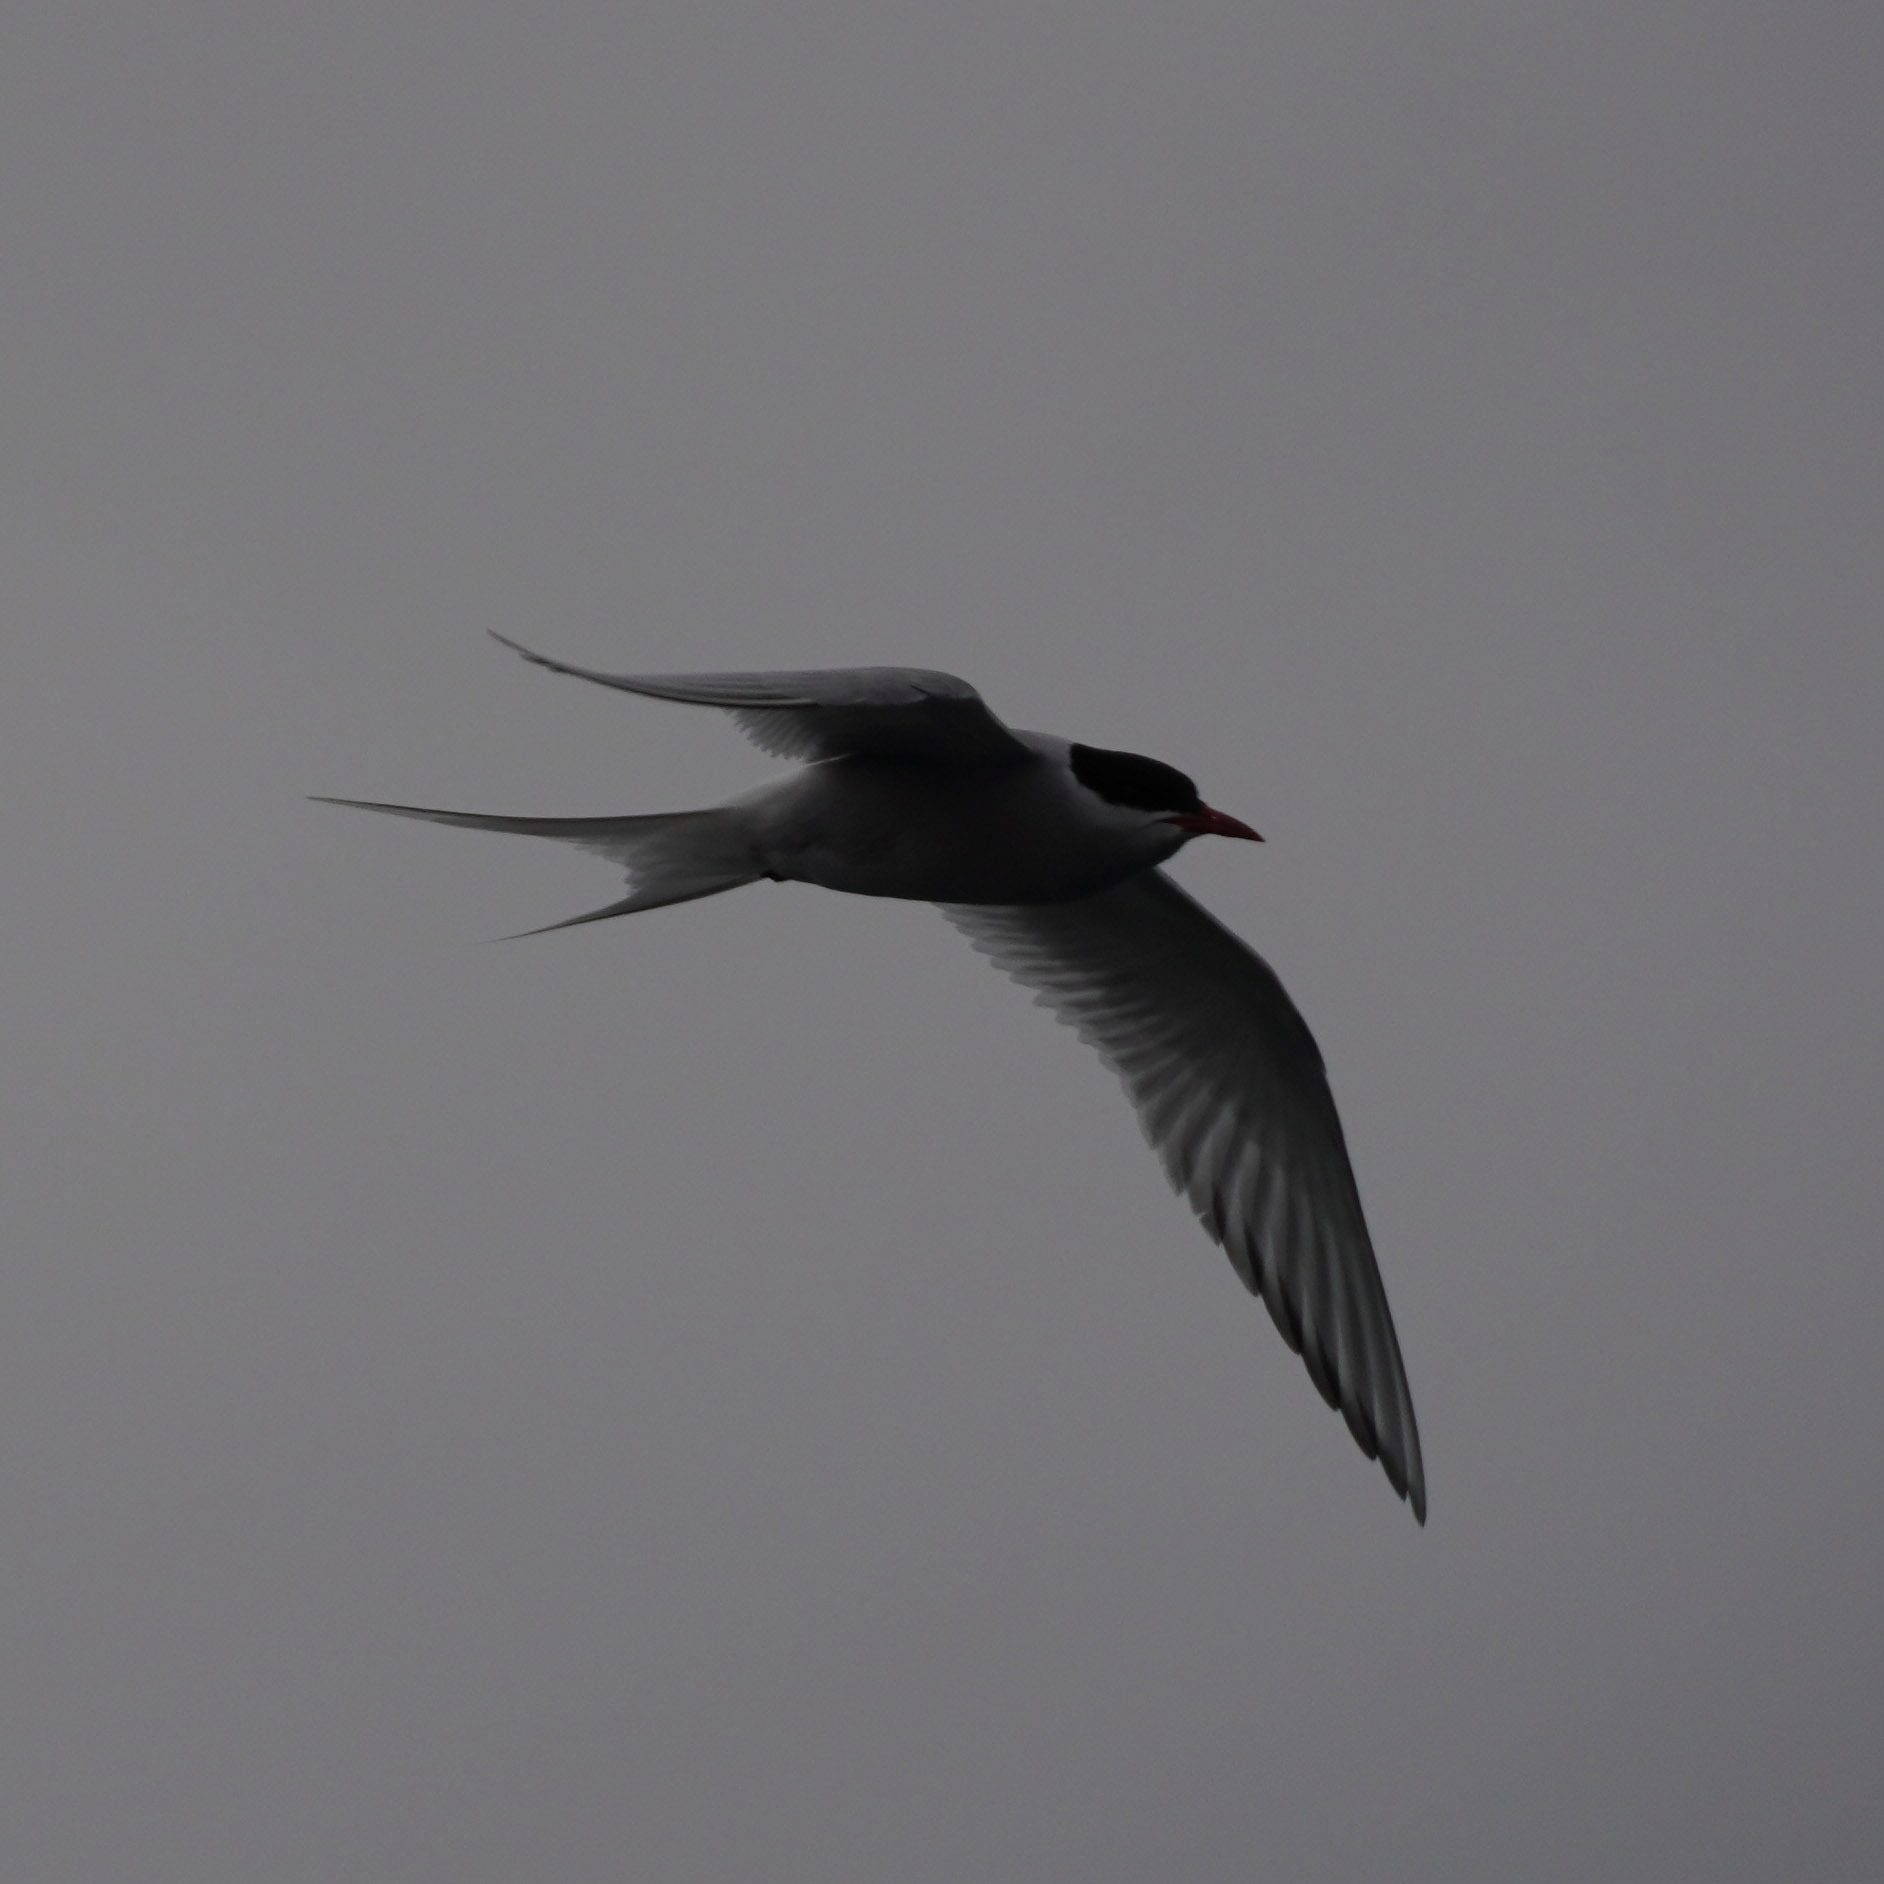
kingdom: Animalia
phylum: Chordata
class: Aves
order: Charadriiformes
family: Laridae
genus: Sterna
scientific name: Sterna paradisaea
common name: Arctic tern
